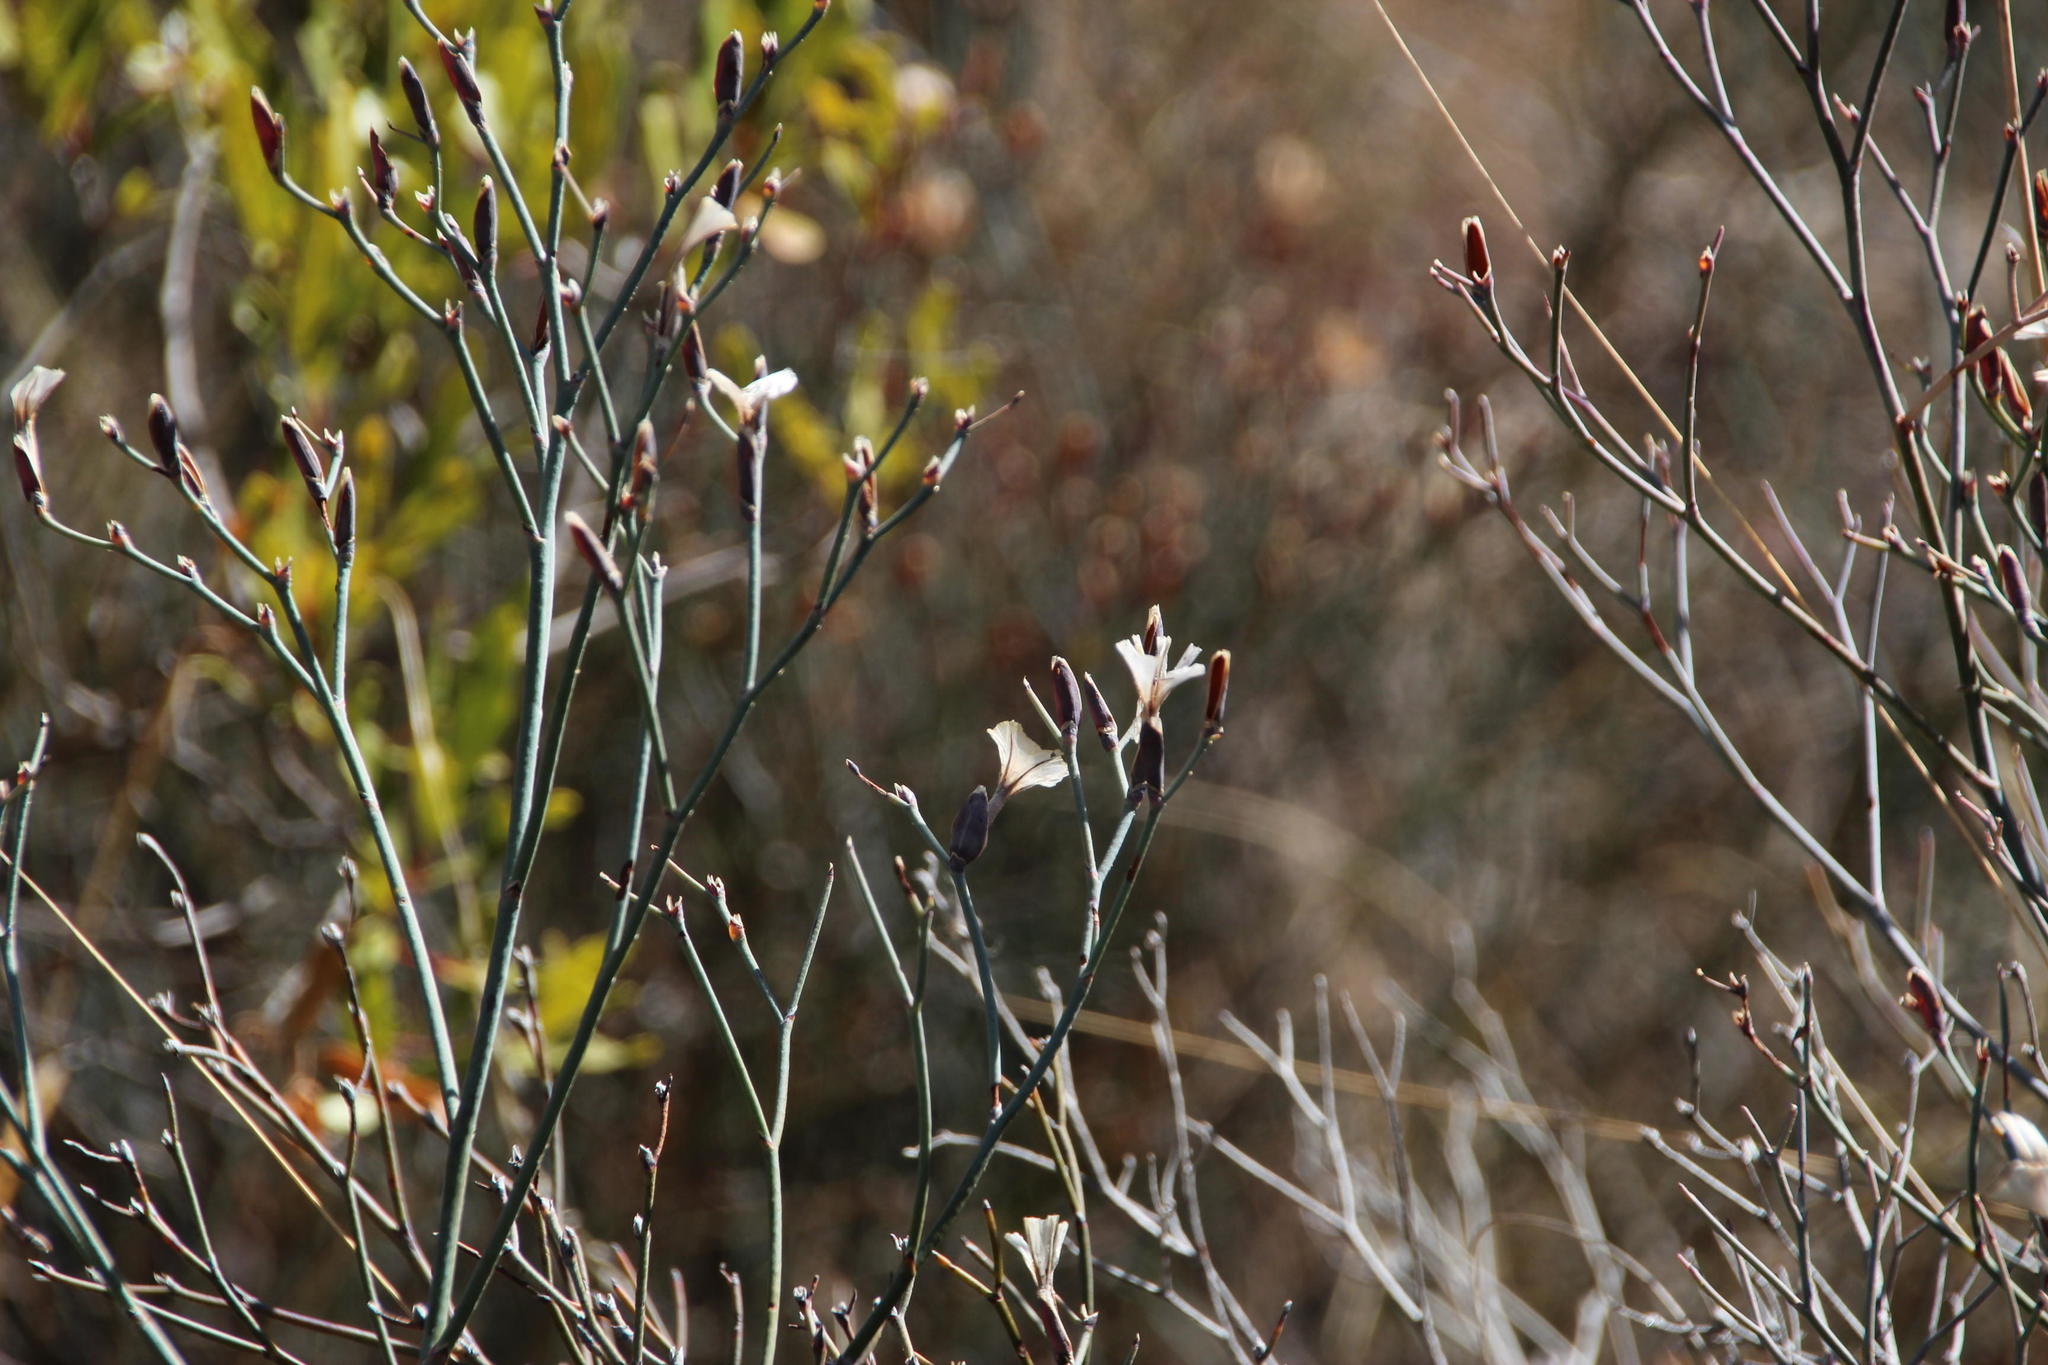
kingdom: Plantae
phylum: Tracheophyta
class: Magnoliopsida
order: Caryophyllales
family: Plumbaginaceae
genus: Limonium
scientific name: Limonium longifolium
